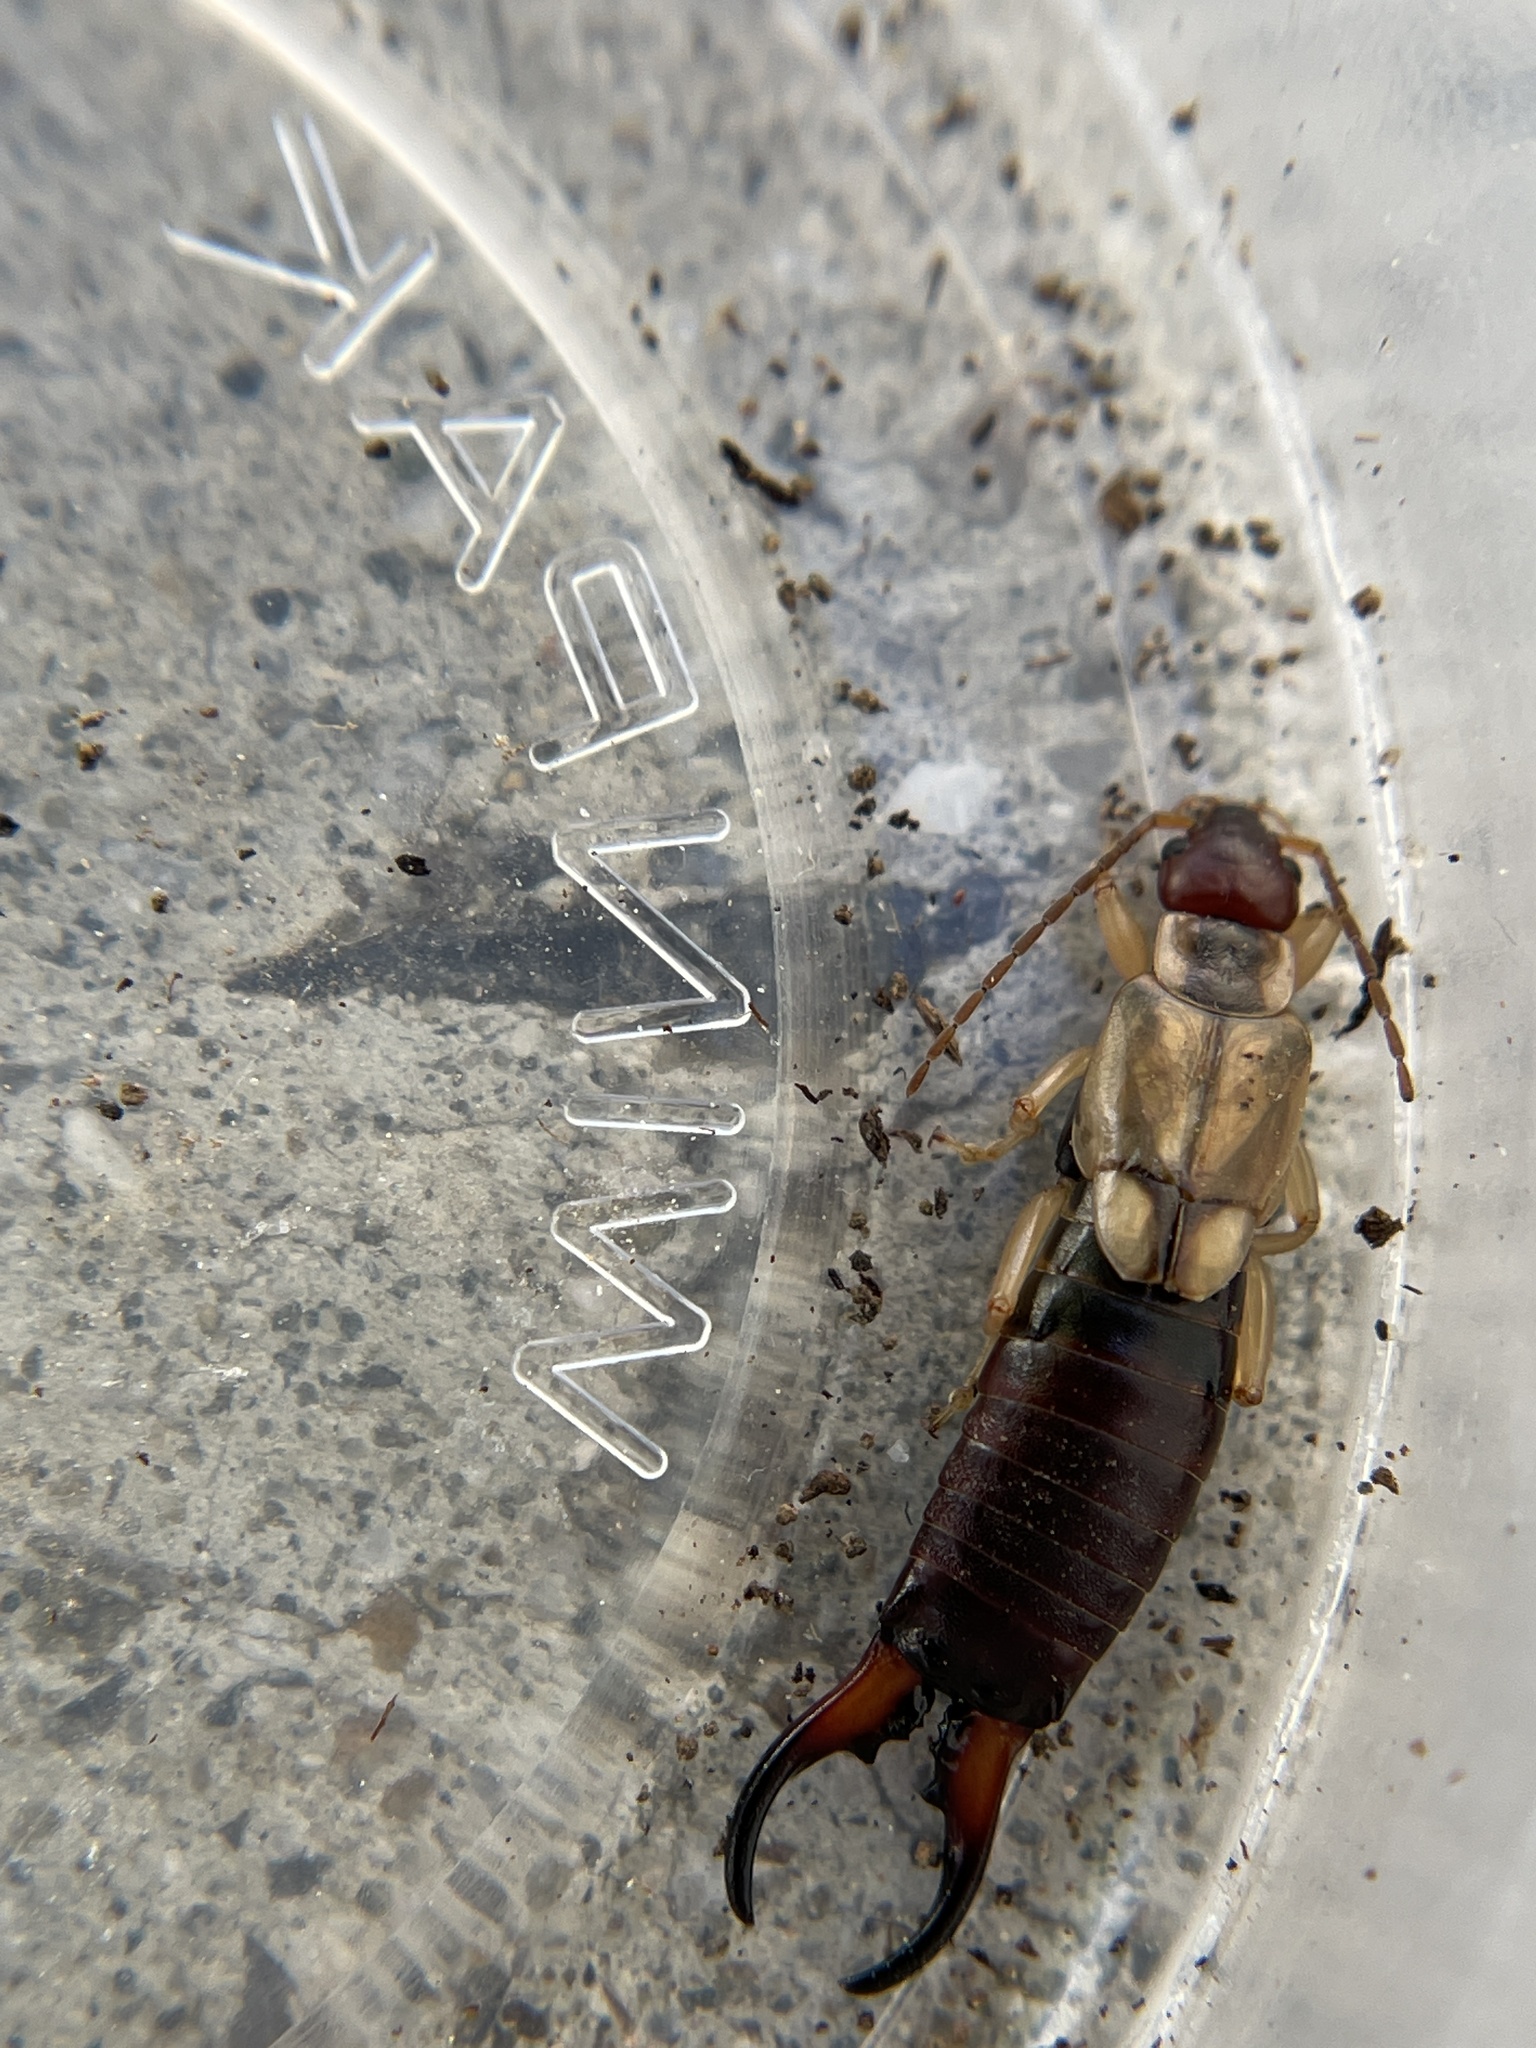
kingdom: Animalia
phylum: Arthropoda
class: Insecta
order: Dermaptera
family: Forficulidae
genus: Forficula
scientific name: Forficula
